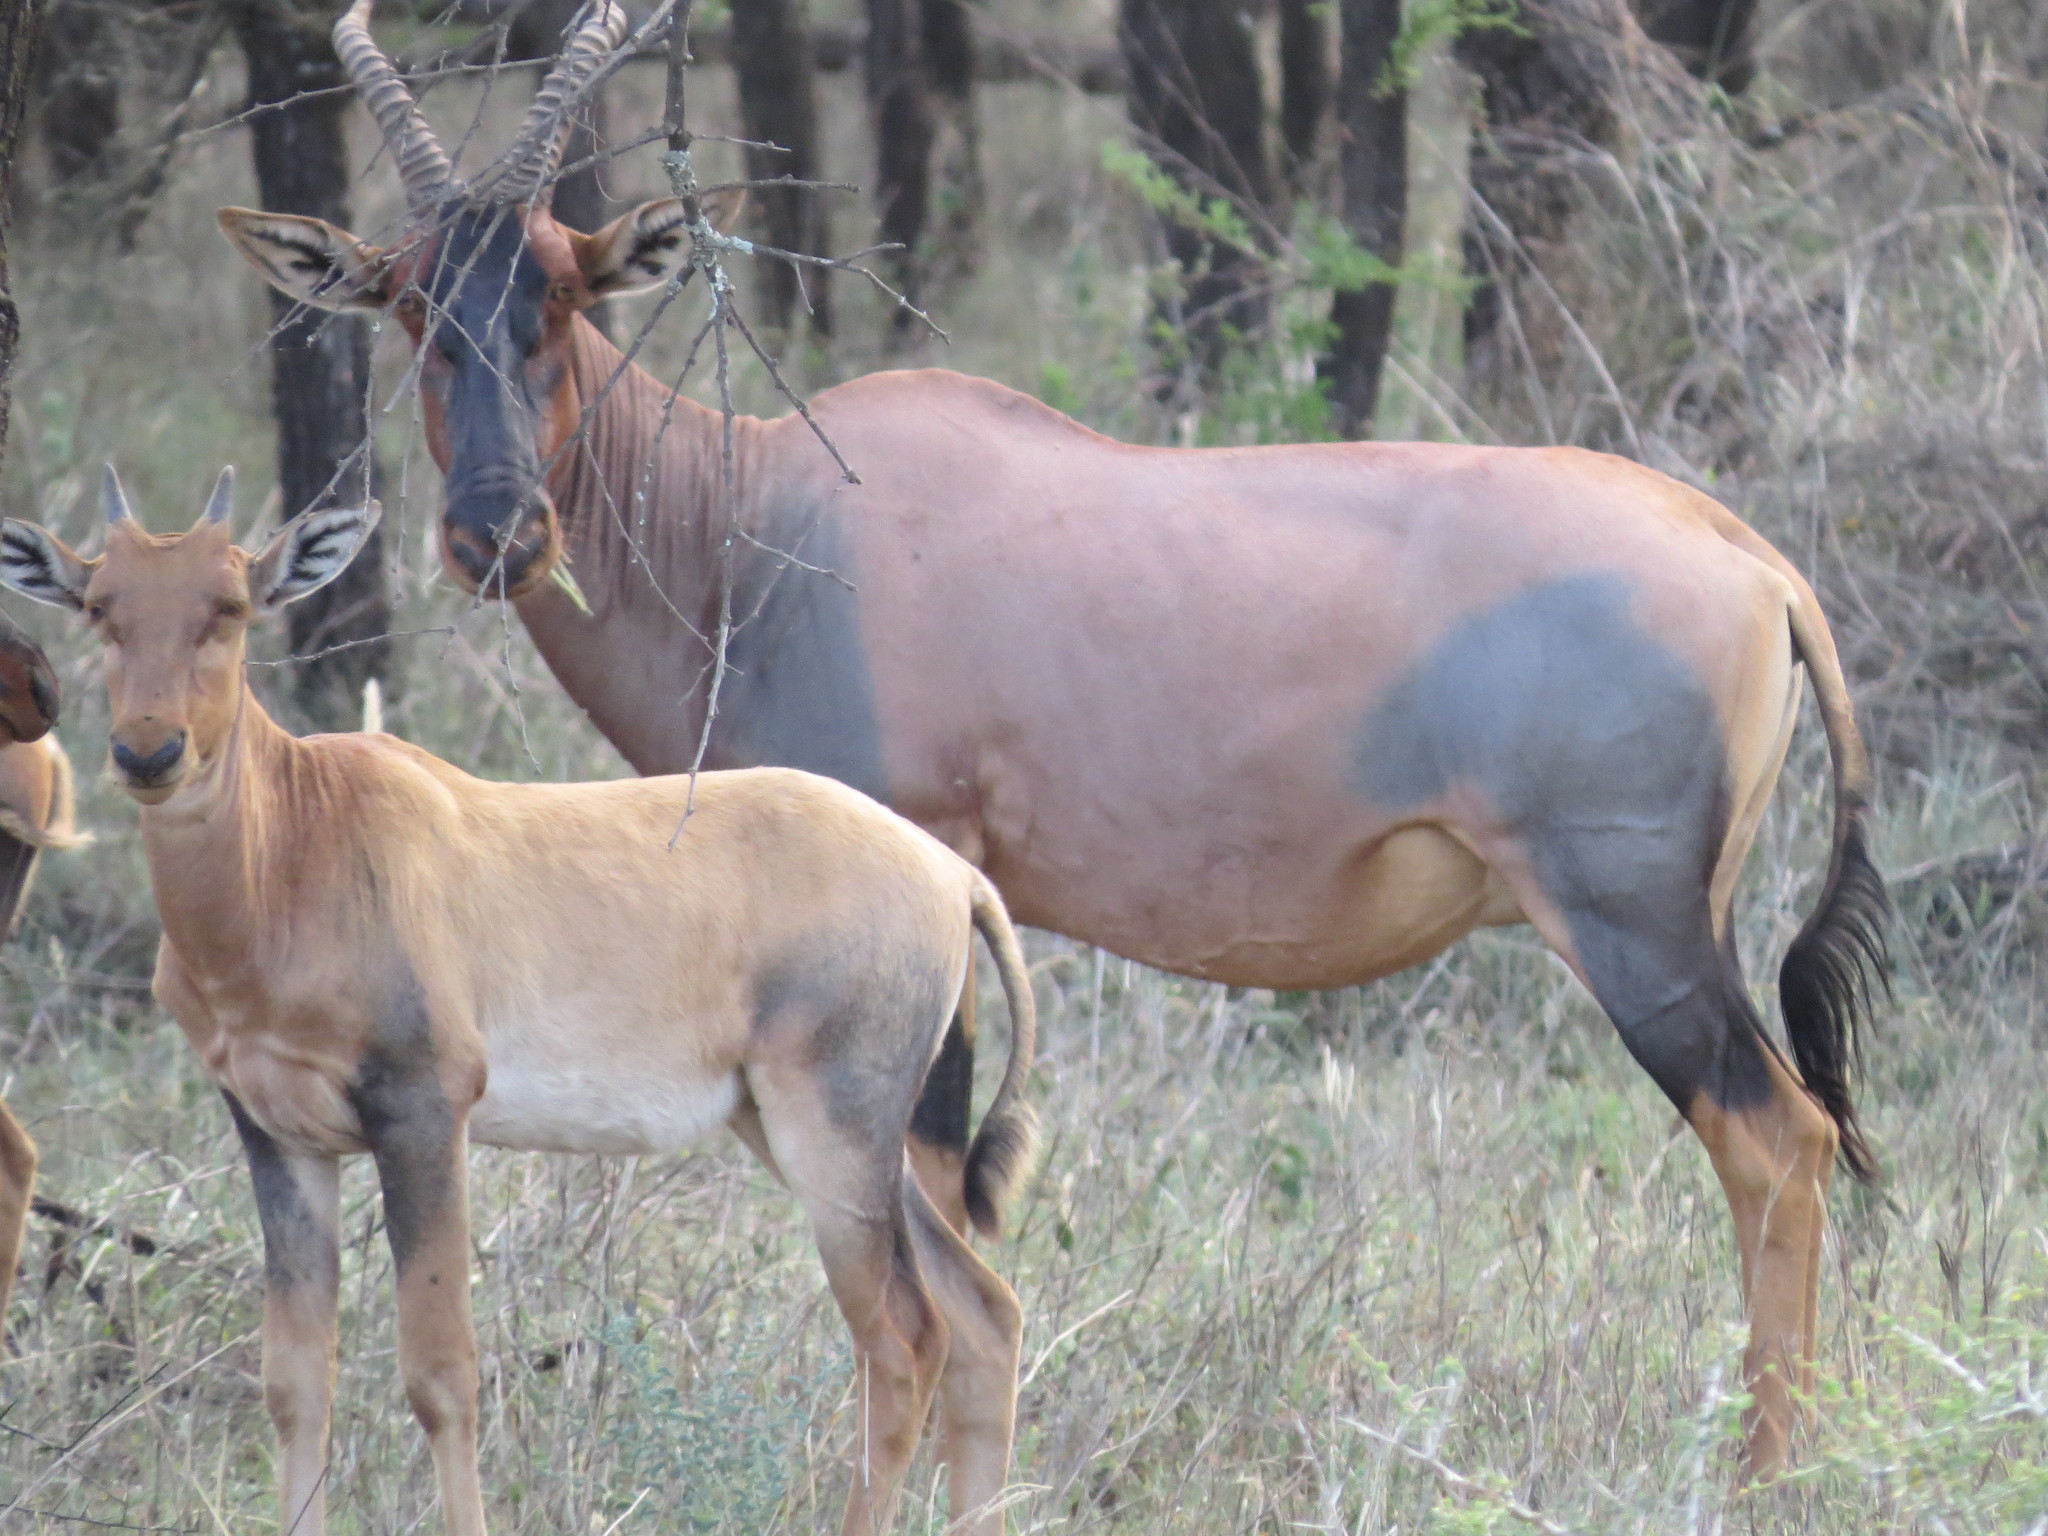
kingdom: Animalia
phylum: Chordata
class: Mammalia
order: Artiodactyla
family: Bovidae
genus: Damaliscus
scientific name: Damaliscus korrigum
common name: Topi
